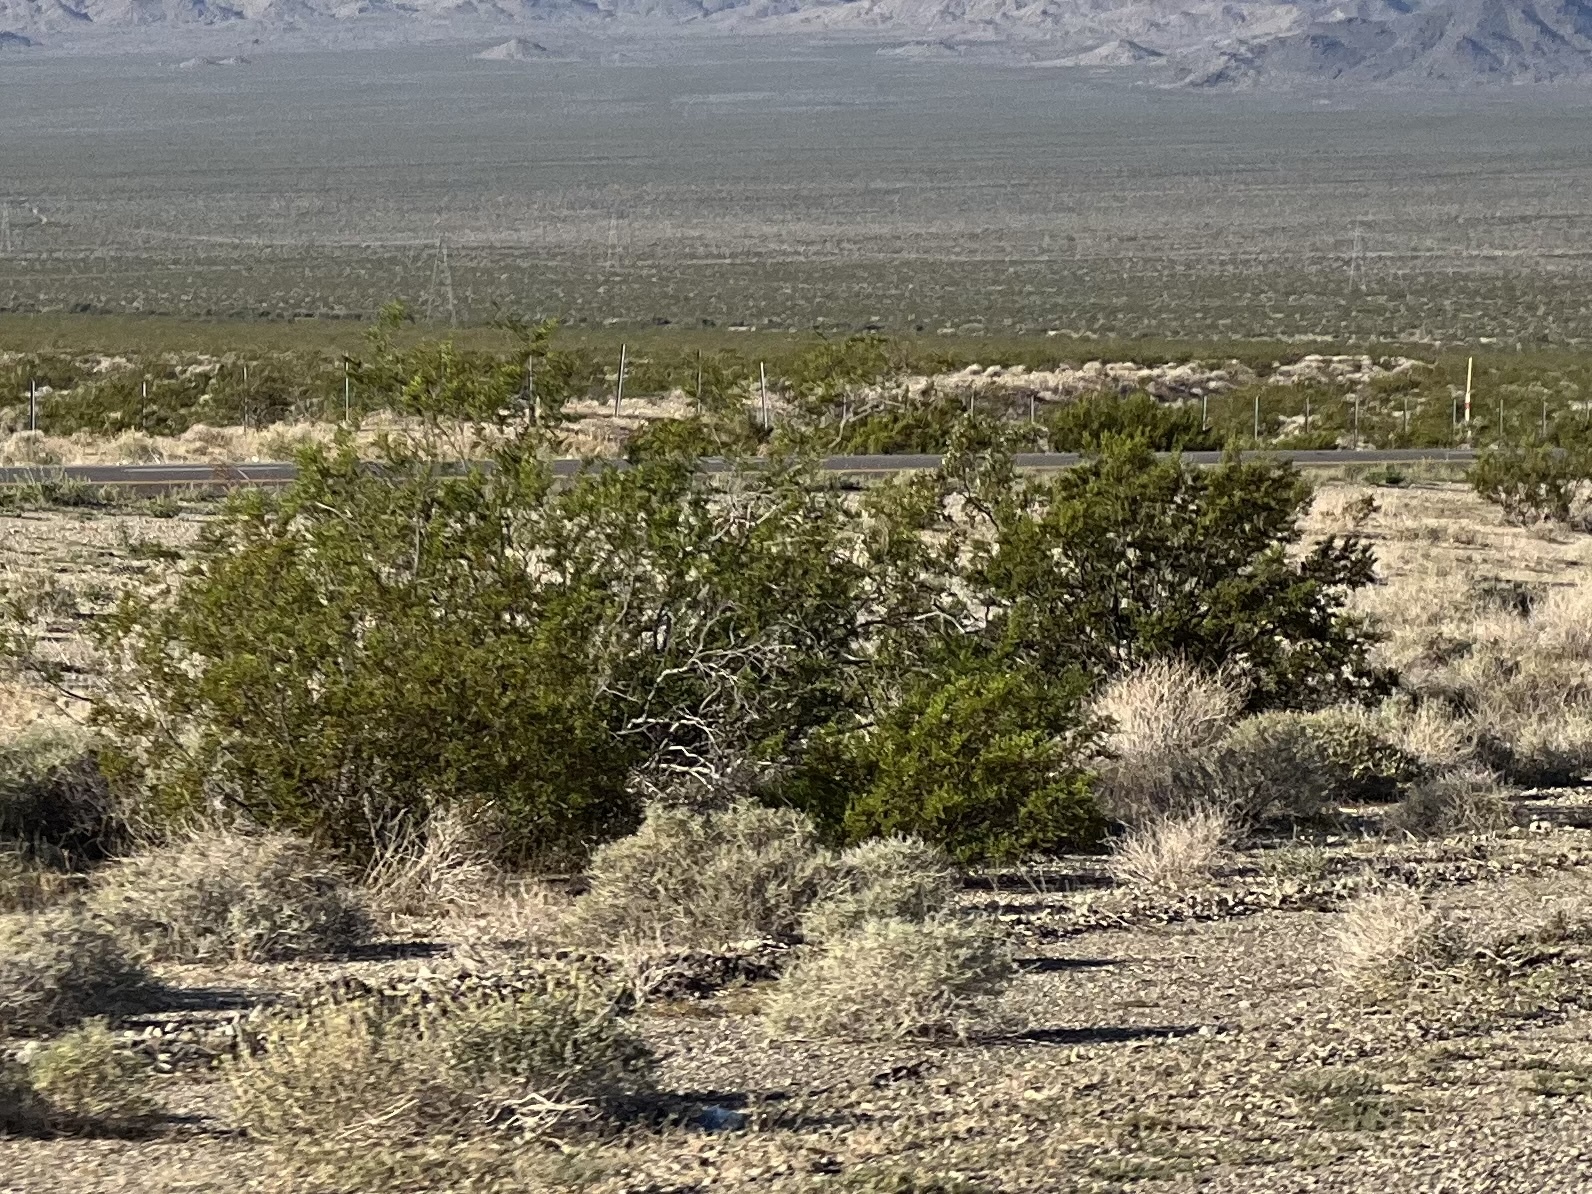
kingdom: Plantae
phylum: Tracheophyta
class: Magnoliopsida
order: Zygophyllales
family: Zygophyllaceae
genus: Larrea
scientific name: Larrea tridentata
